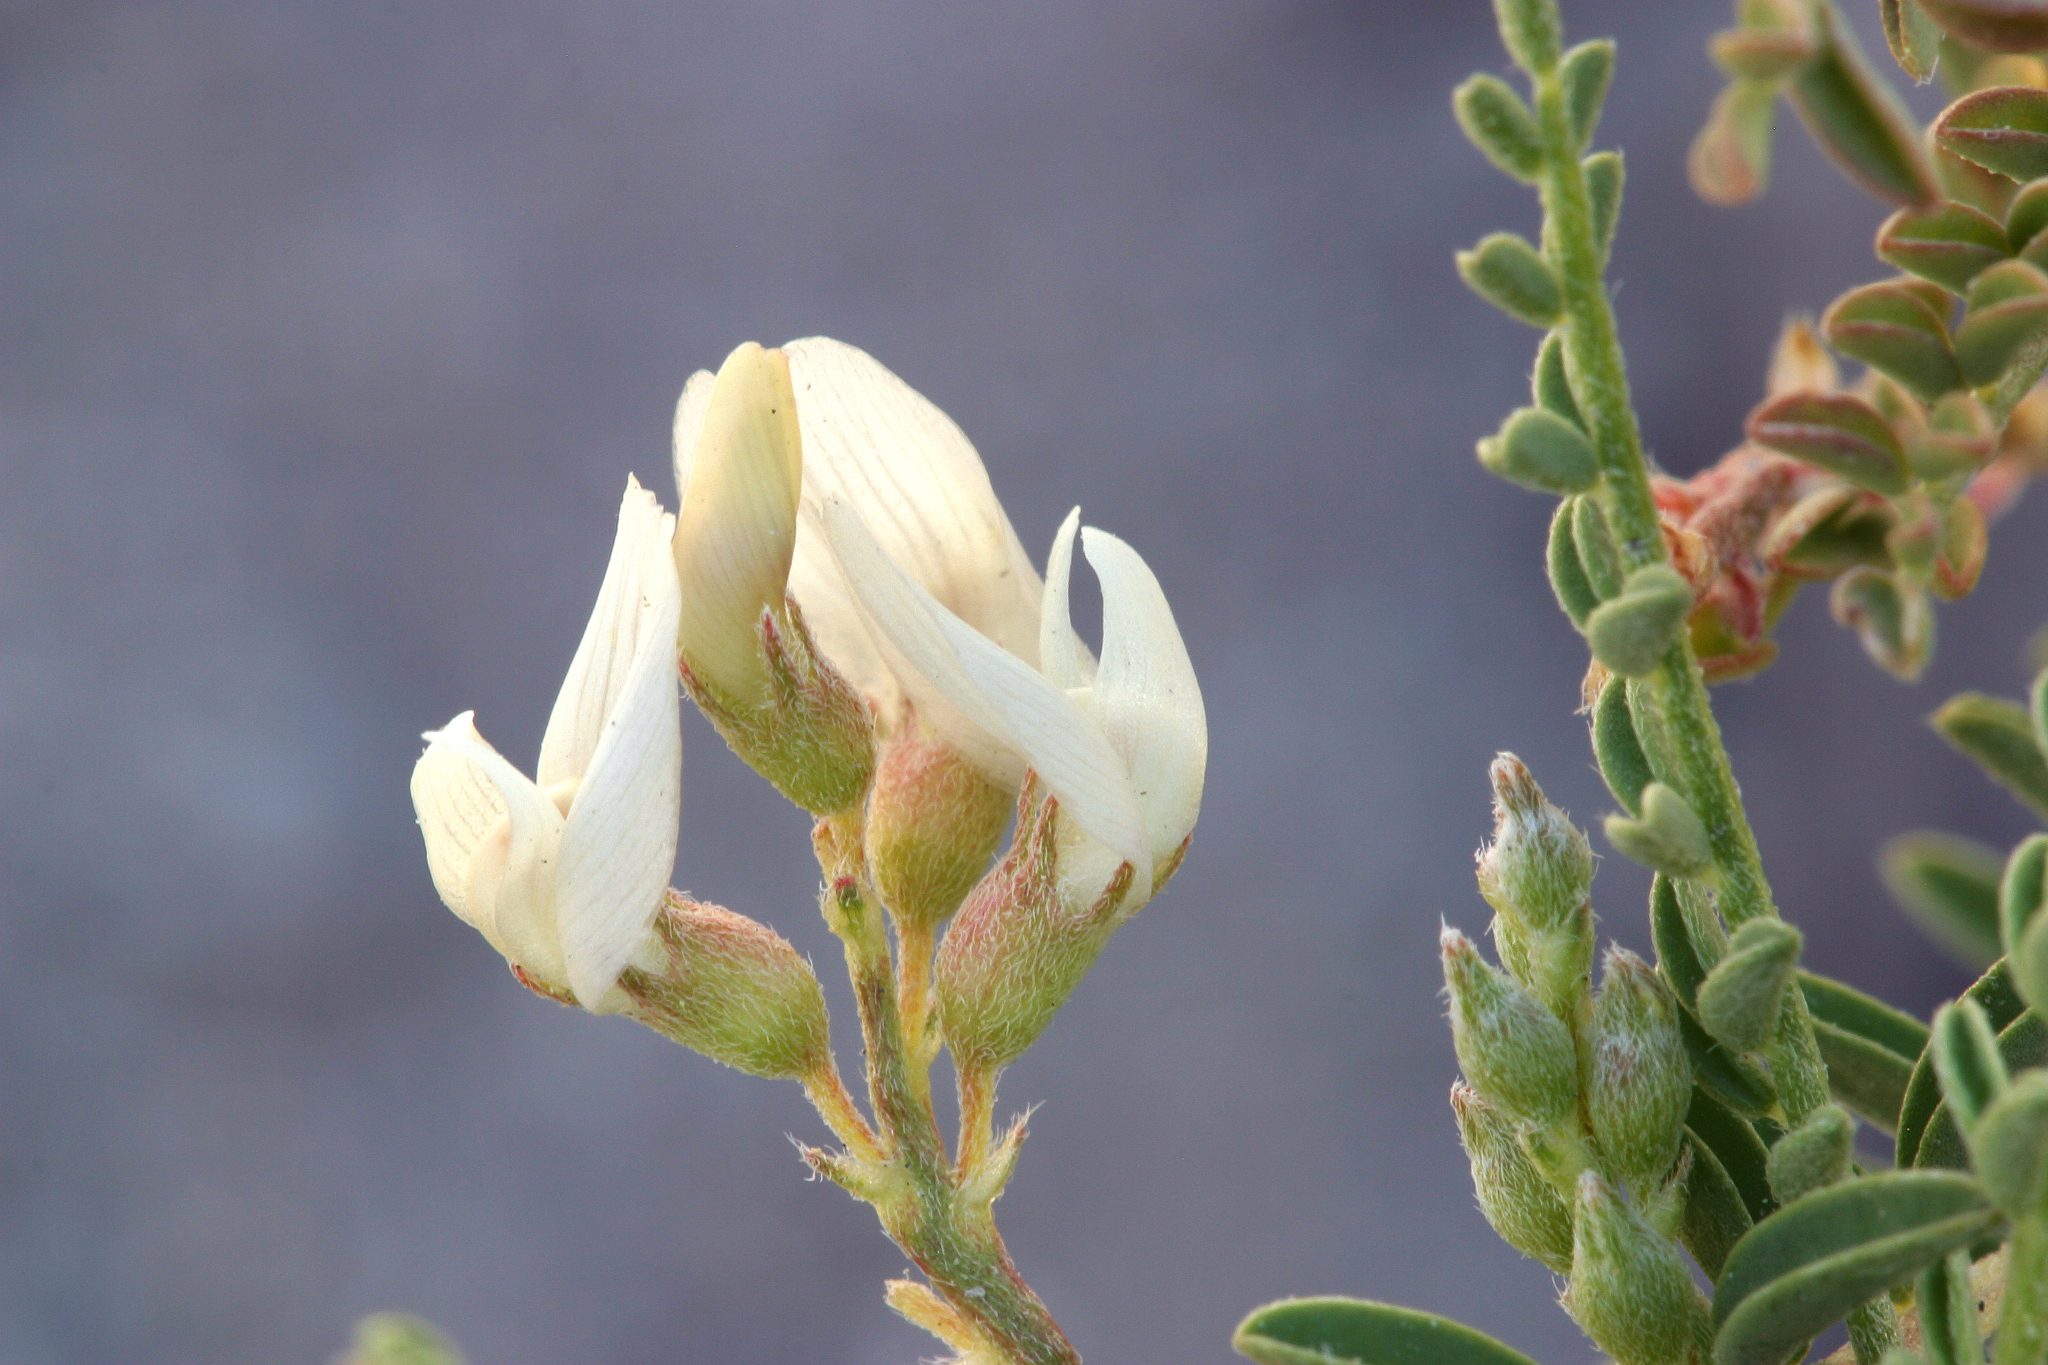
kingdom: Plantae
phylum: Tracheophyta
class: Magnoliopsida
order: Fabales
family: Fabaceae
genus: Astragalus
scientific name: Astragalus johannis-howellii
